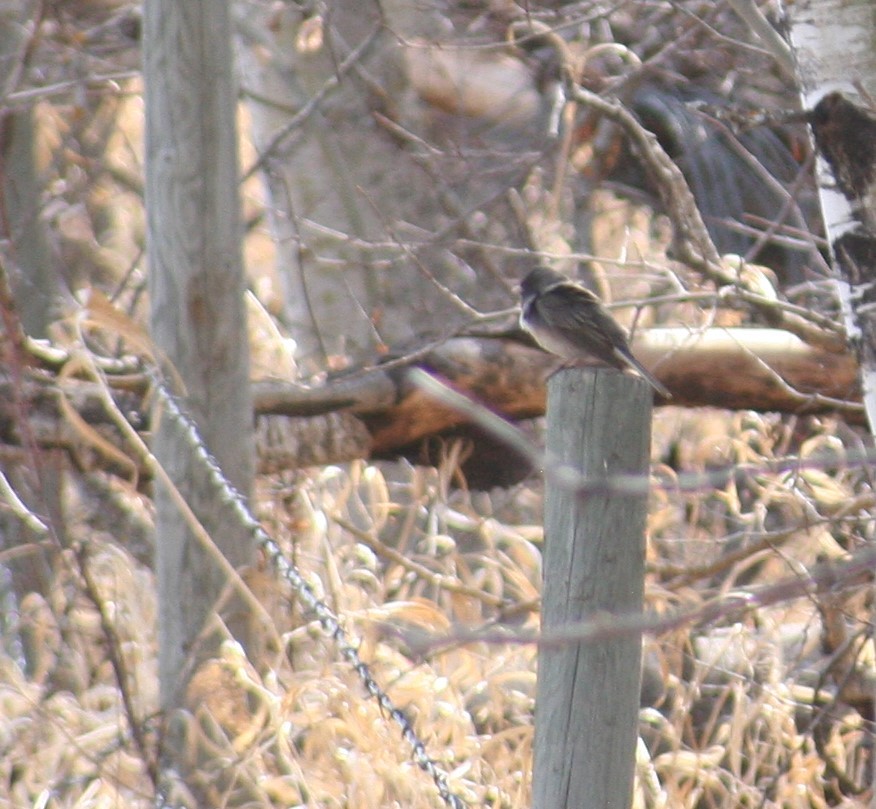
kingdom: Animalia
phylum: Chordata
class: Aves
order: Passeriformes
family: Passerellidae
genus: Junco
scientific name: Junco hyemalis
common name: Dark-eyed junco
